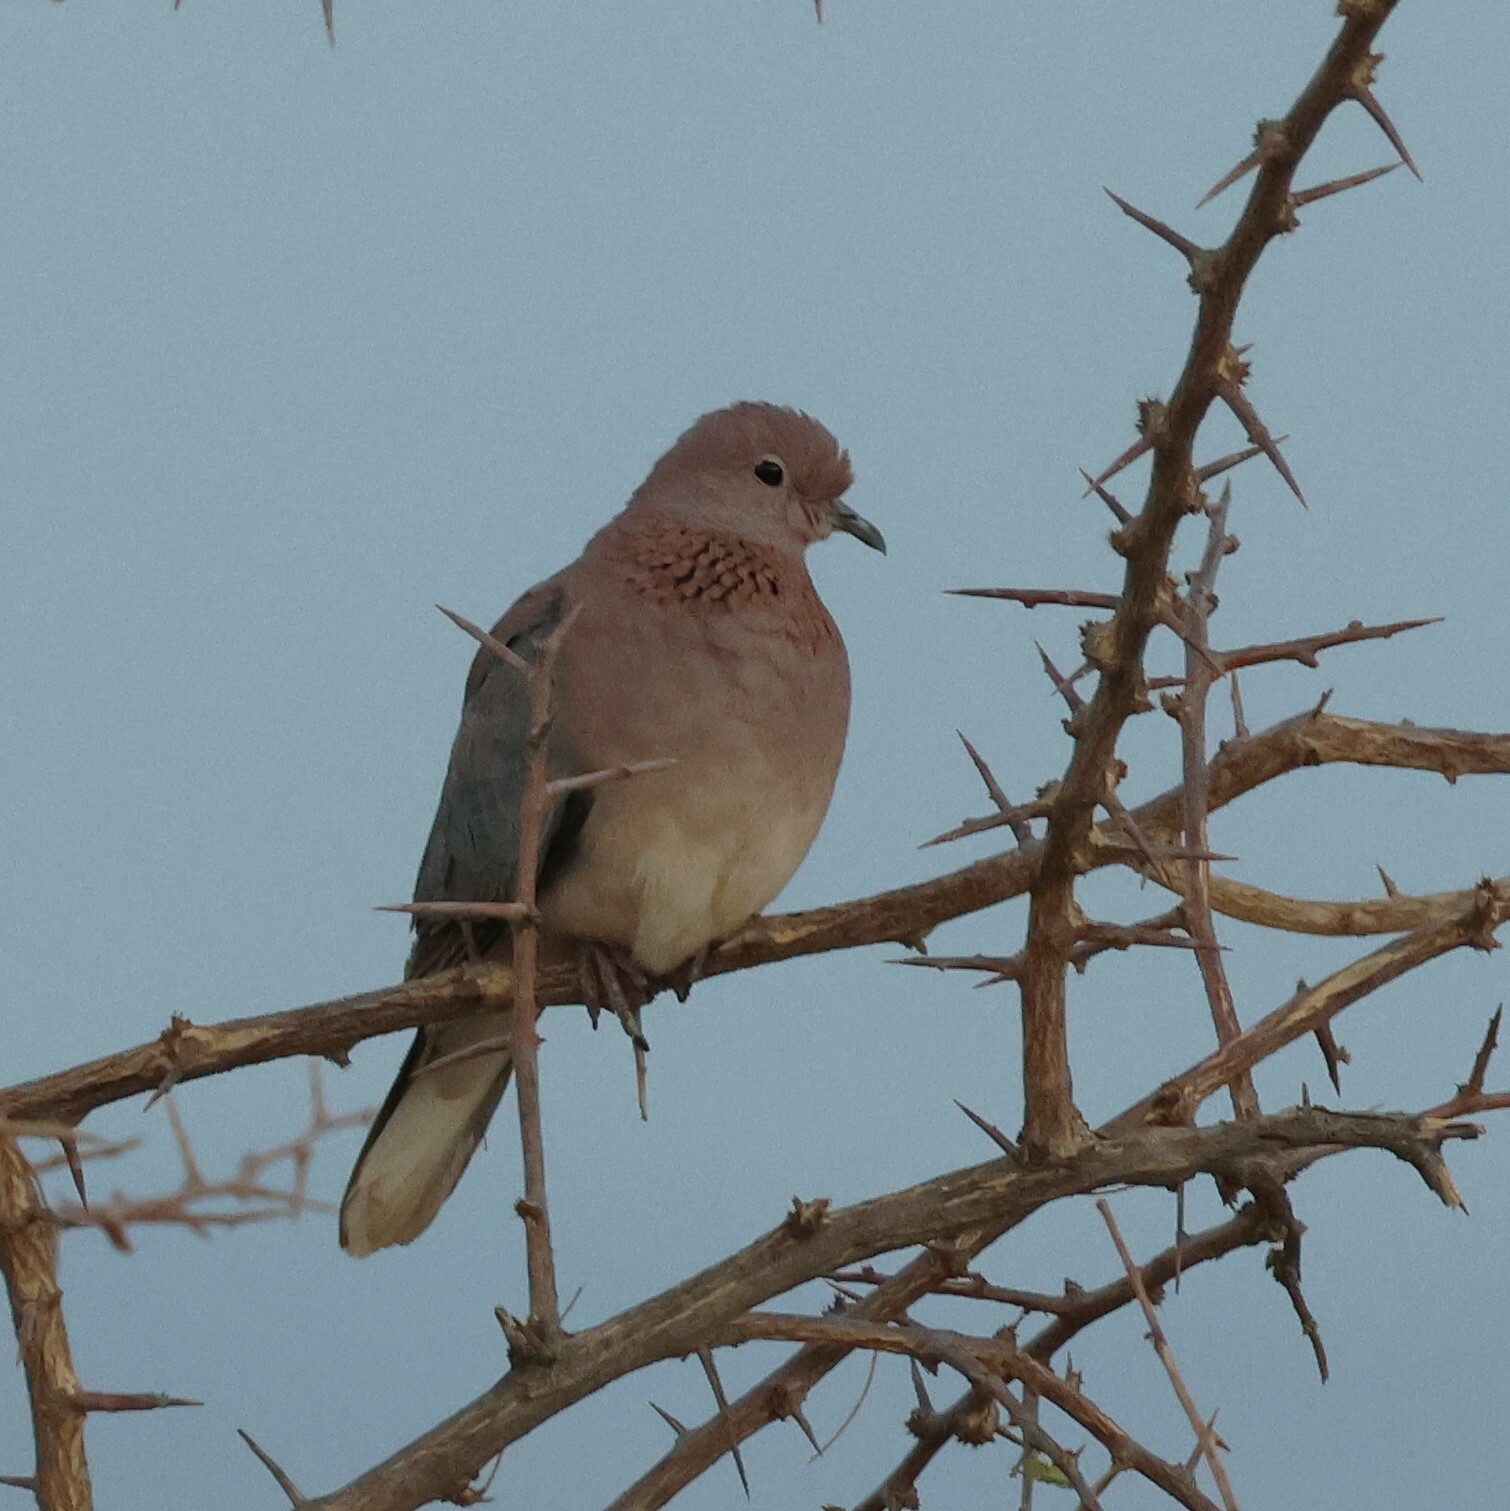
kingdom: Animalia
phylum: Chordata
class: Aves
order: Columbiformes
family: Columbidae
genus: Spilopelia
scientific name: Spilopelia senegalensis
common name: Laughing dove
